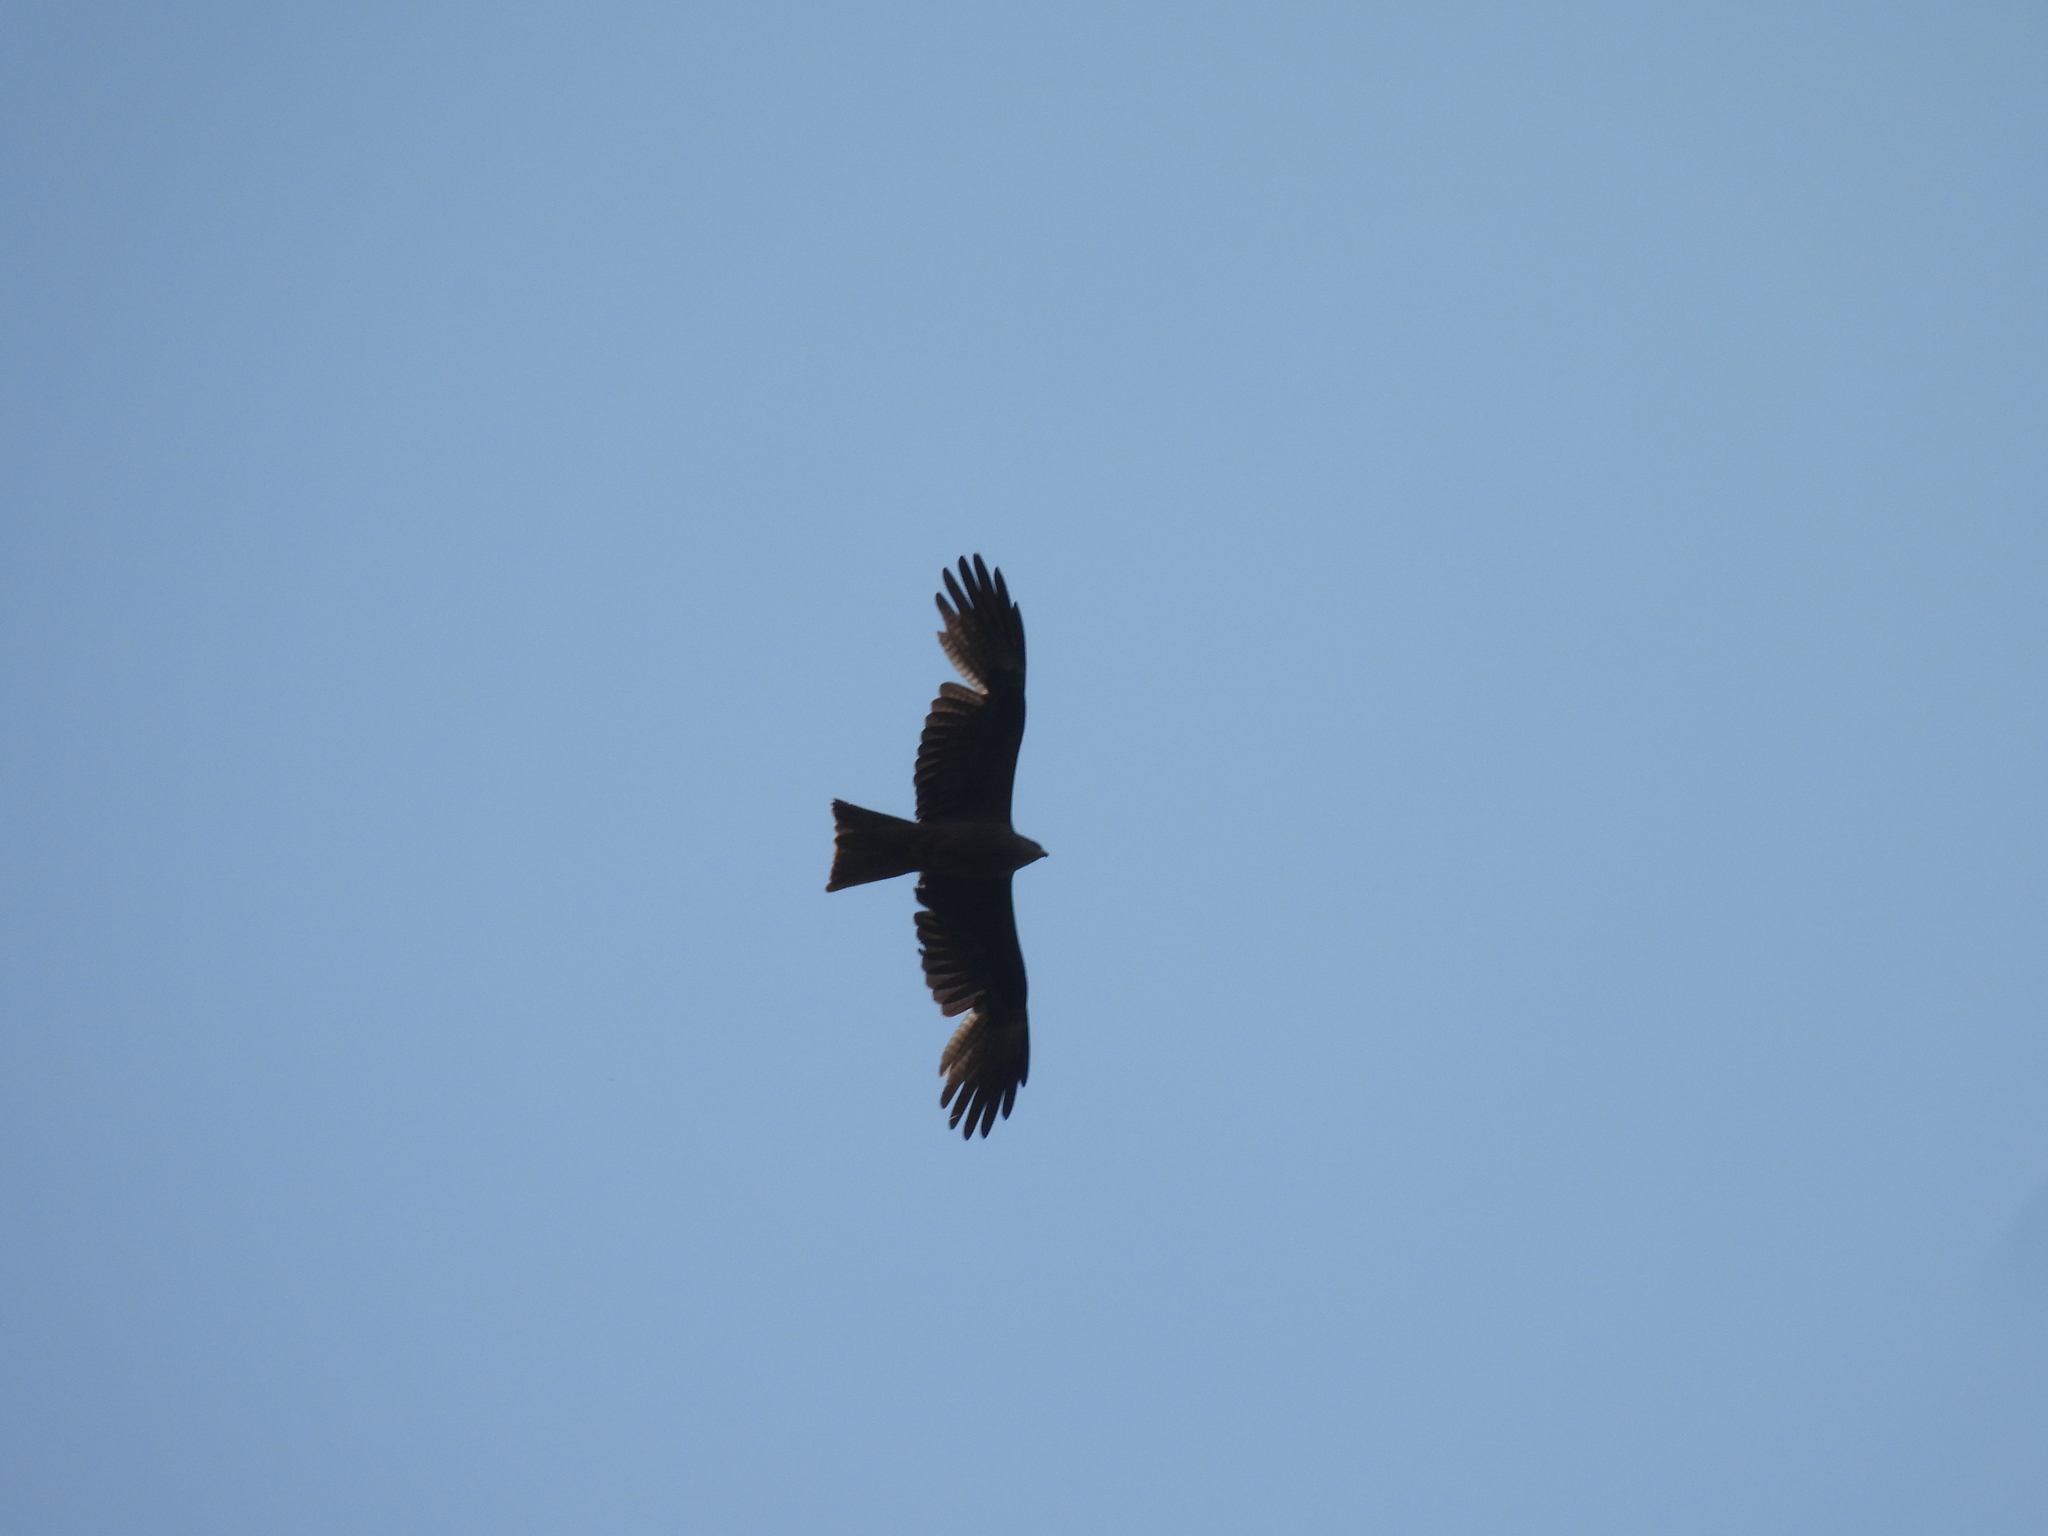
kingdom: Animalia
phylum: Chordata
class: Aves
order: Accipitriformes
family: Accipitridae
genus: Milvus
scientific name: Milvus migrans
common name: Black kite
